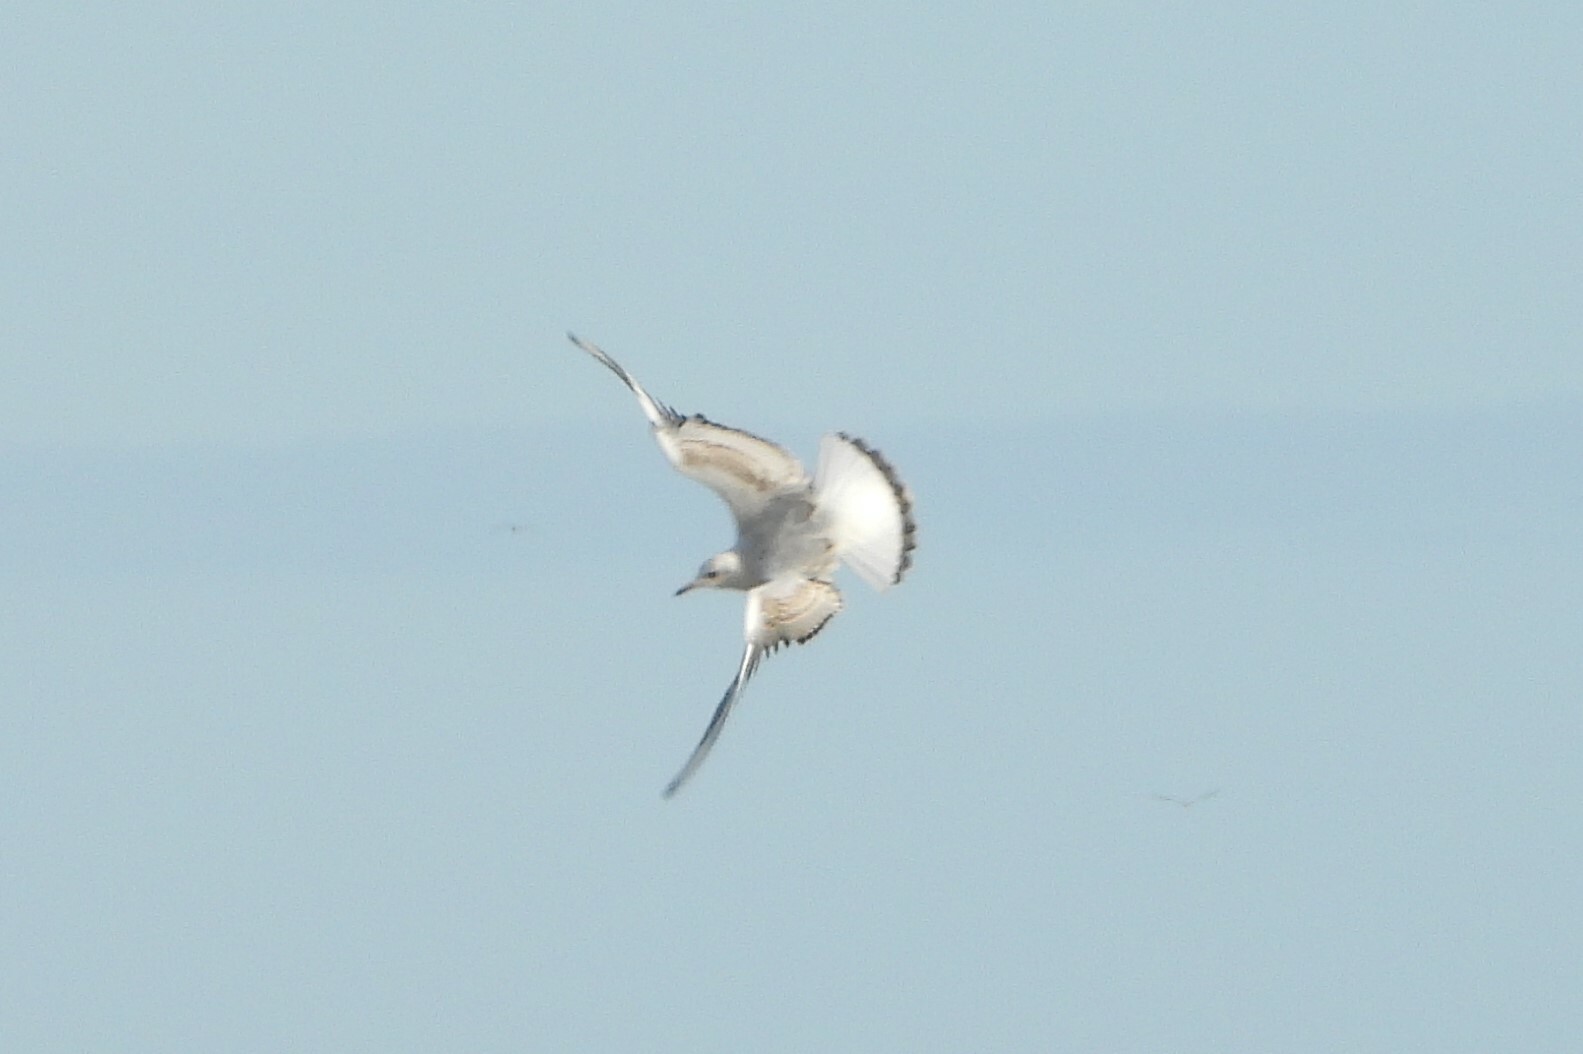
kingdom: Animalia
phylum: Chordata
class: Aves
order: Charadriiformes
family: Laridae
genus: Chroicocephalus
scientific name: Chroicocephalus ridibundus
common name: Black-headed gull
